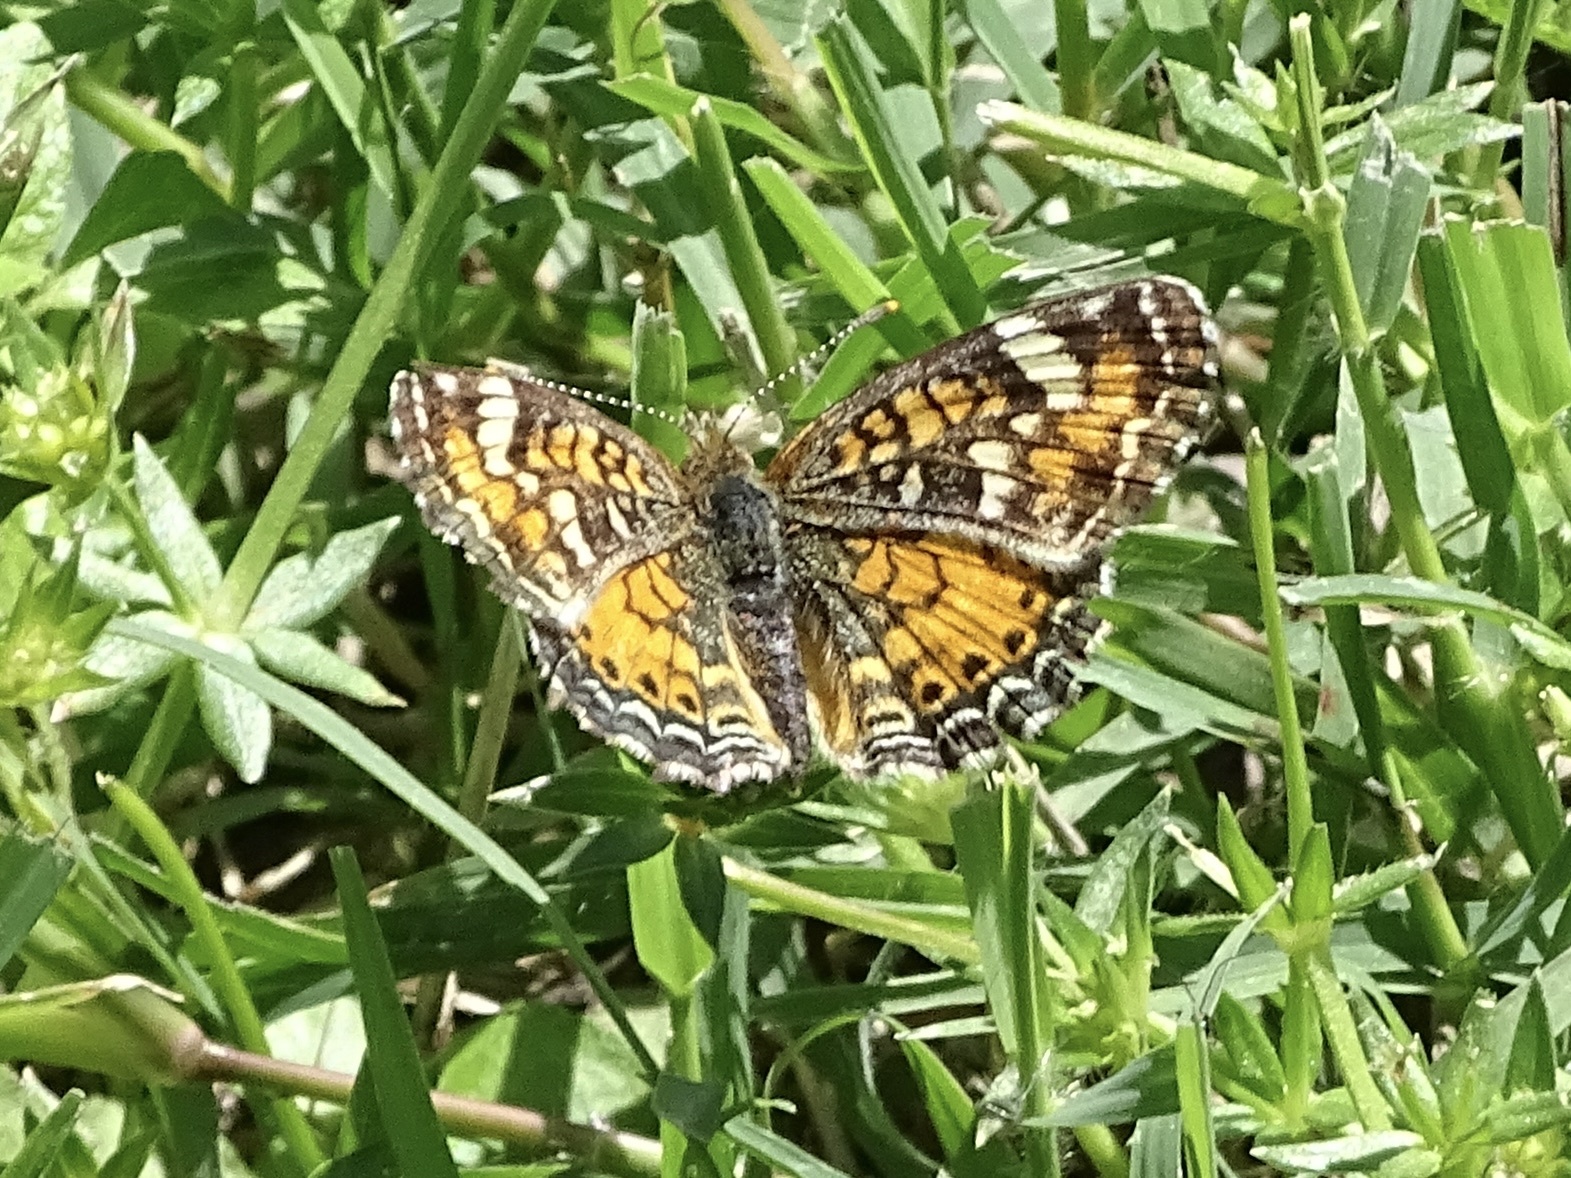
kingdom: Animalia
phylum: Arthropoda
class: Insecta
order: Lepidoptera
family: Nymphalidae
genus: Phyciodes
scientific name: Phyciodes phaon
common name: Phaon crescent
